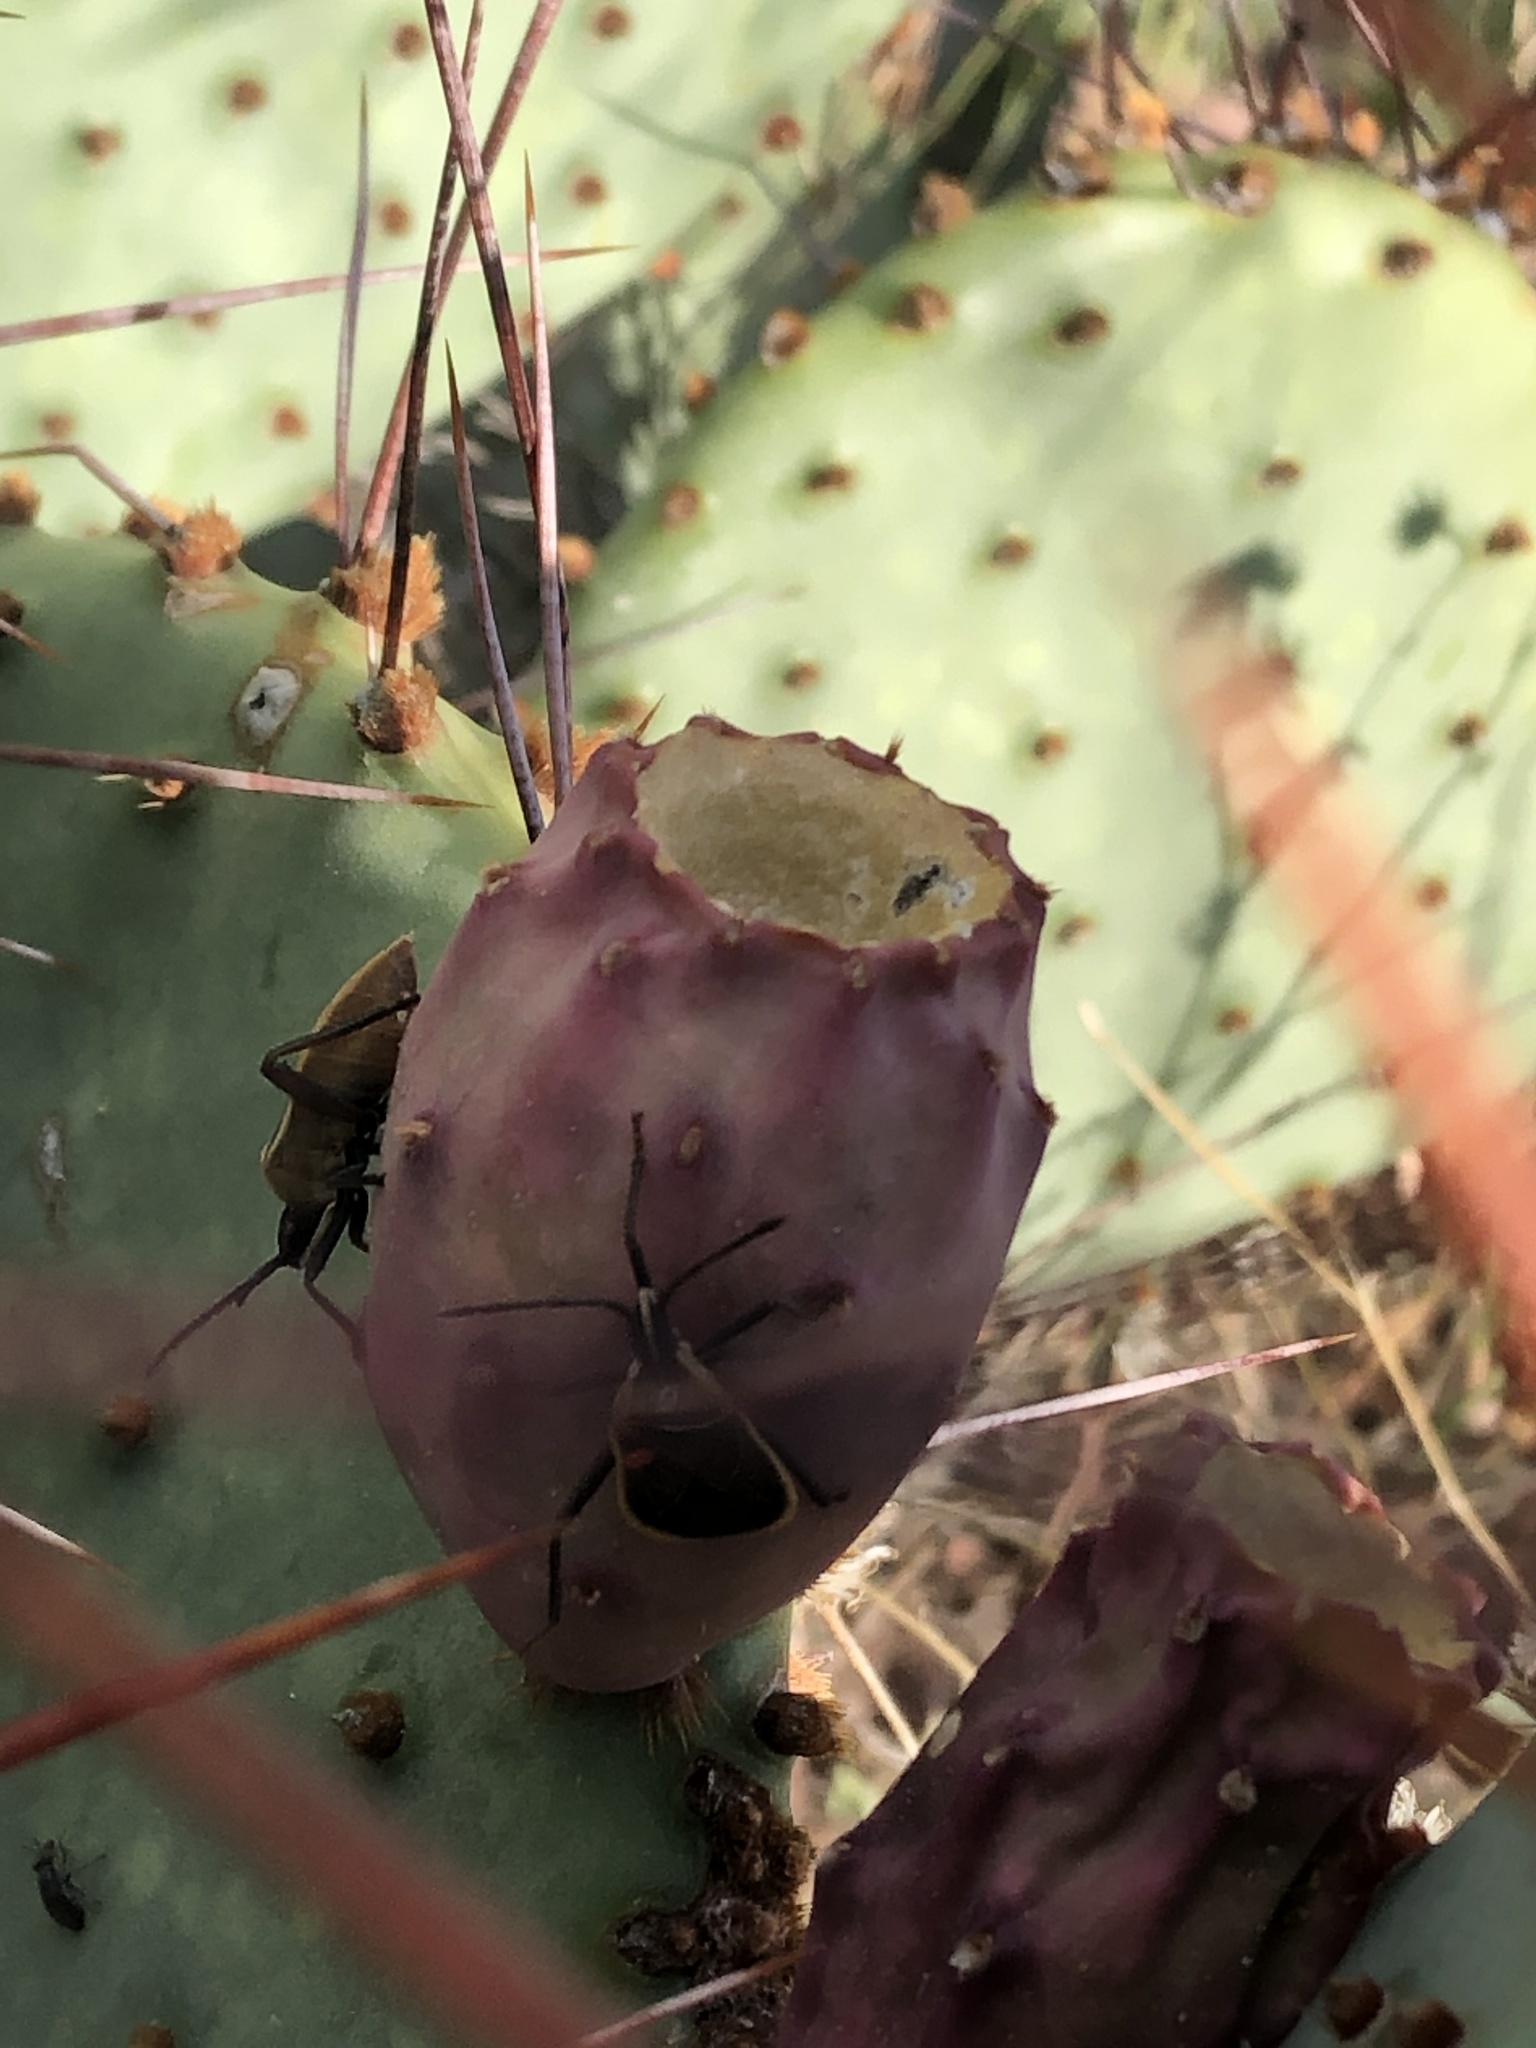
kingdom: Animalia
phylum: Arthropoda
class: Insecta
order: Hemiptera
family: Coreidae
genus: Chelinidea
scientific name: Chelinidea vittiger
